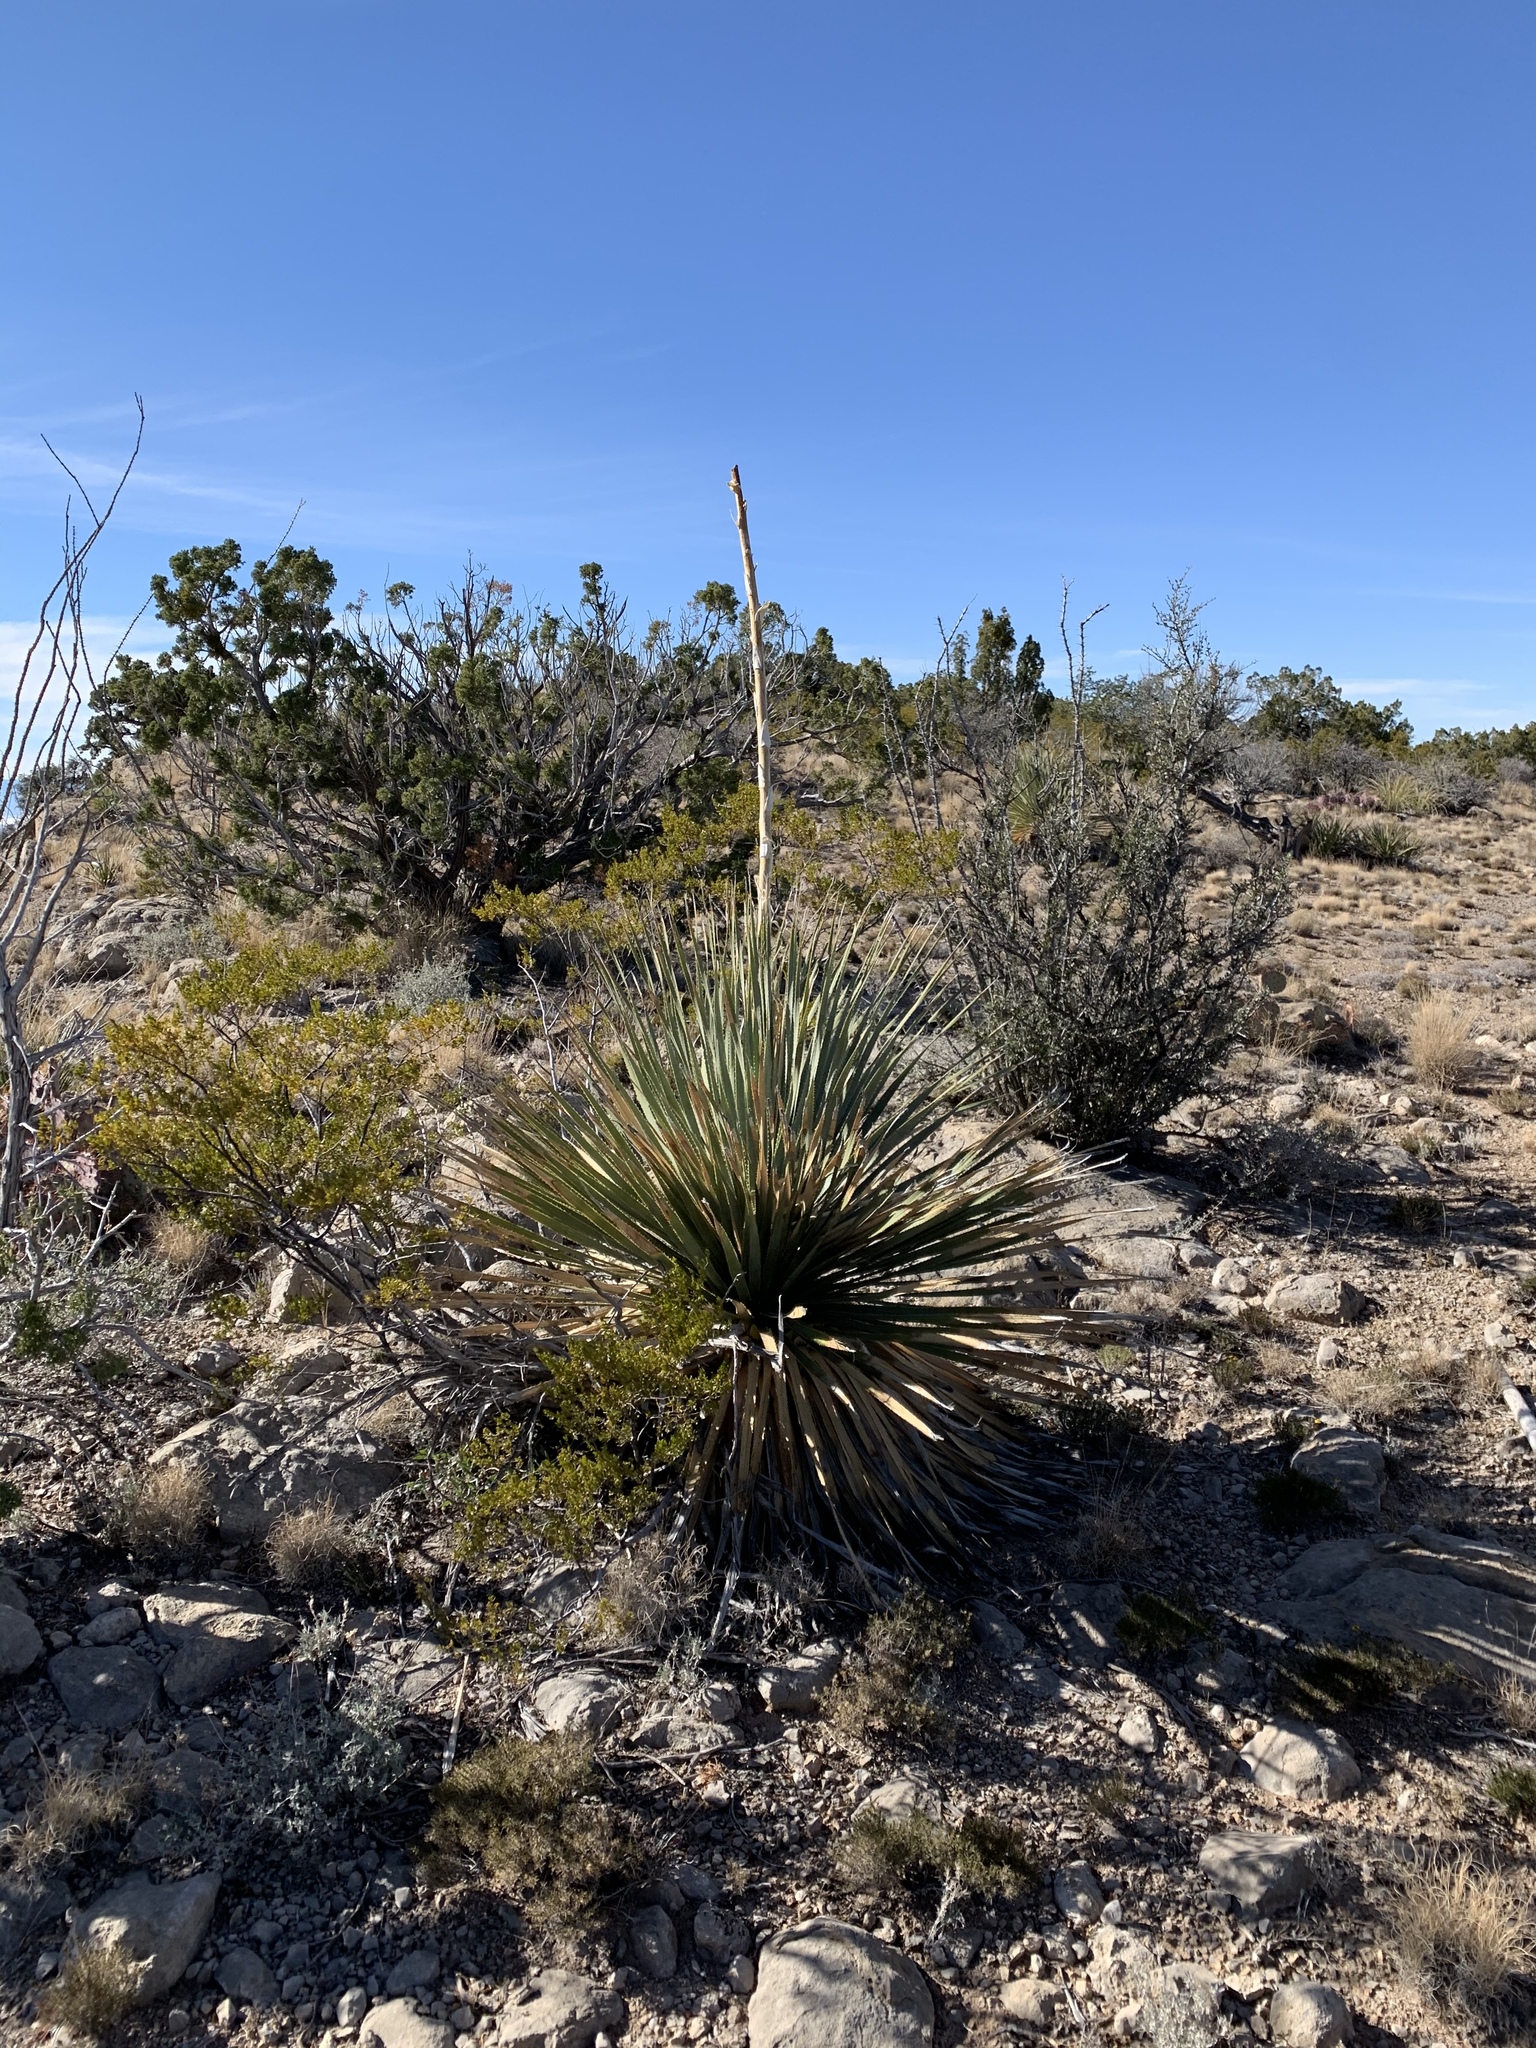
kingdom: Plantae
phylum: Tracheophyta
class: Liliopsida
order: Asparagales
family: Asparagaceae
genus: Dasylirion
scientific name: Dasylirion wheeleri
